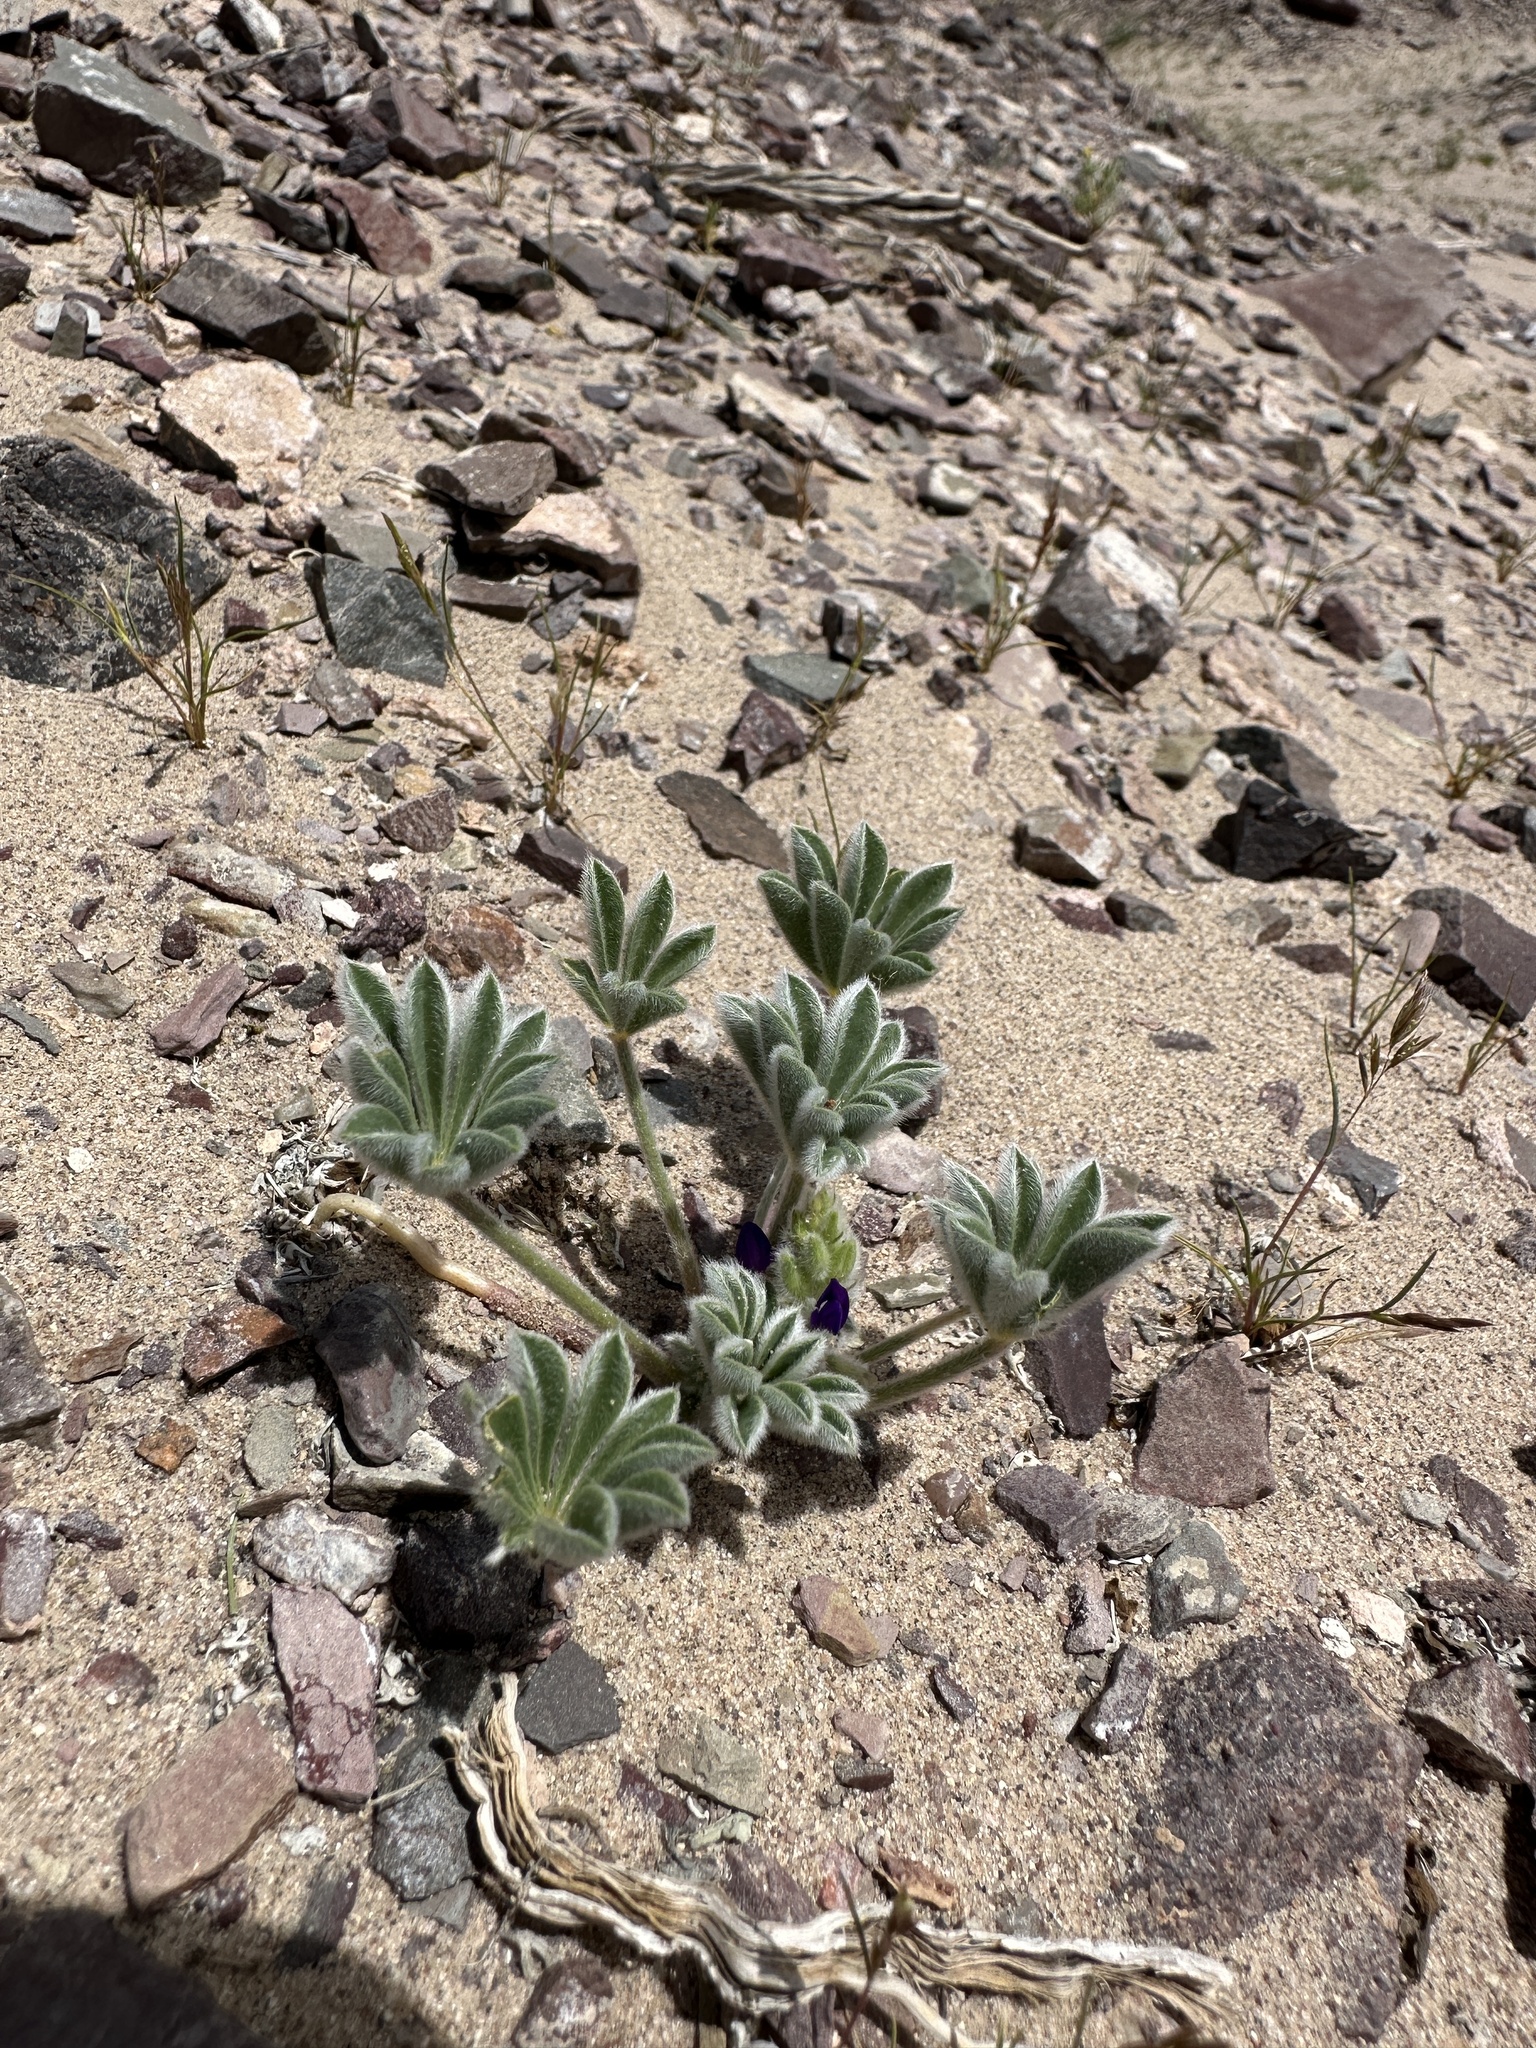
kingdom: Plantae
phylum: Tracheophyta
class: Magnoliopsida
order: Fabales
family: Fabaceae
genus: Lupinus
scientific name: Lupinus shockleyi
